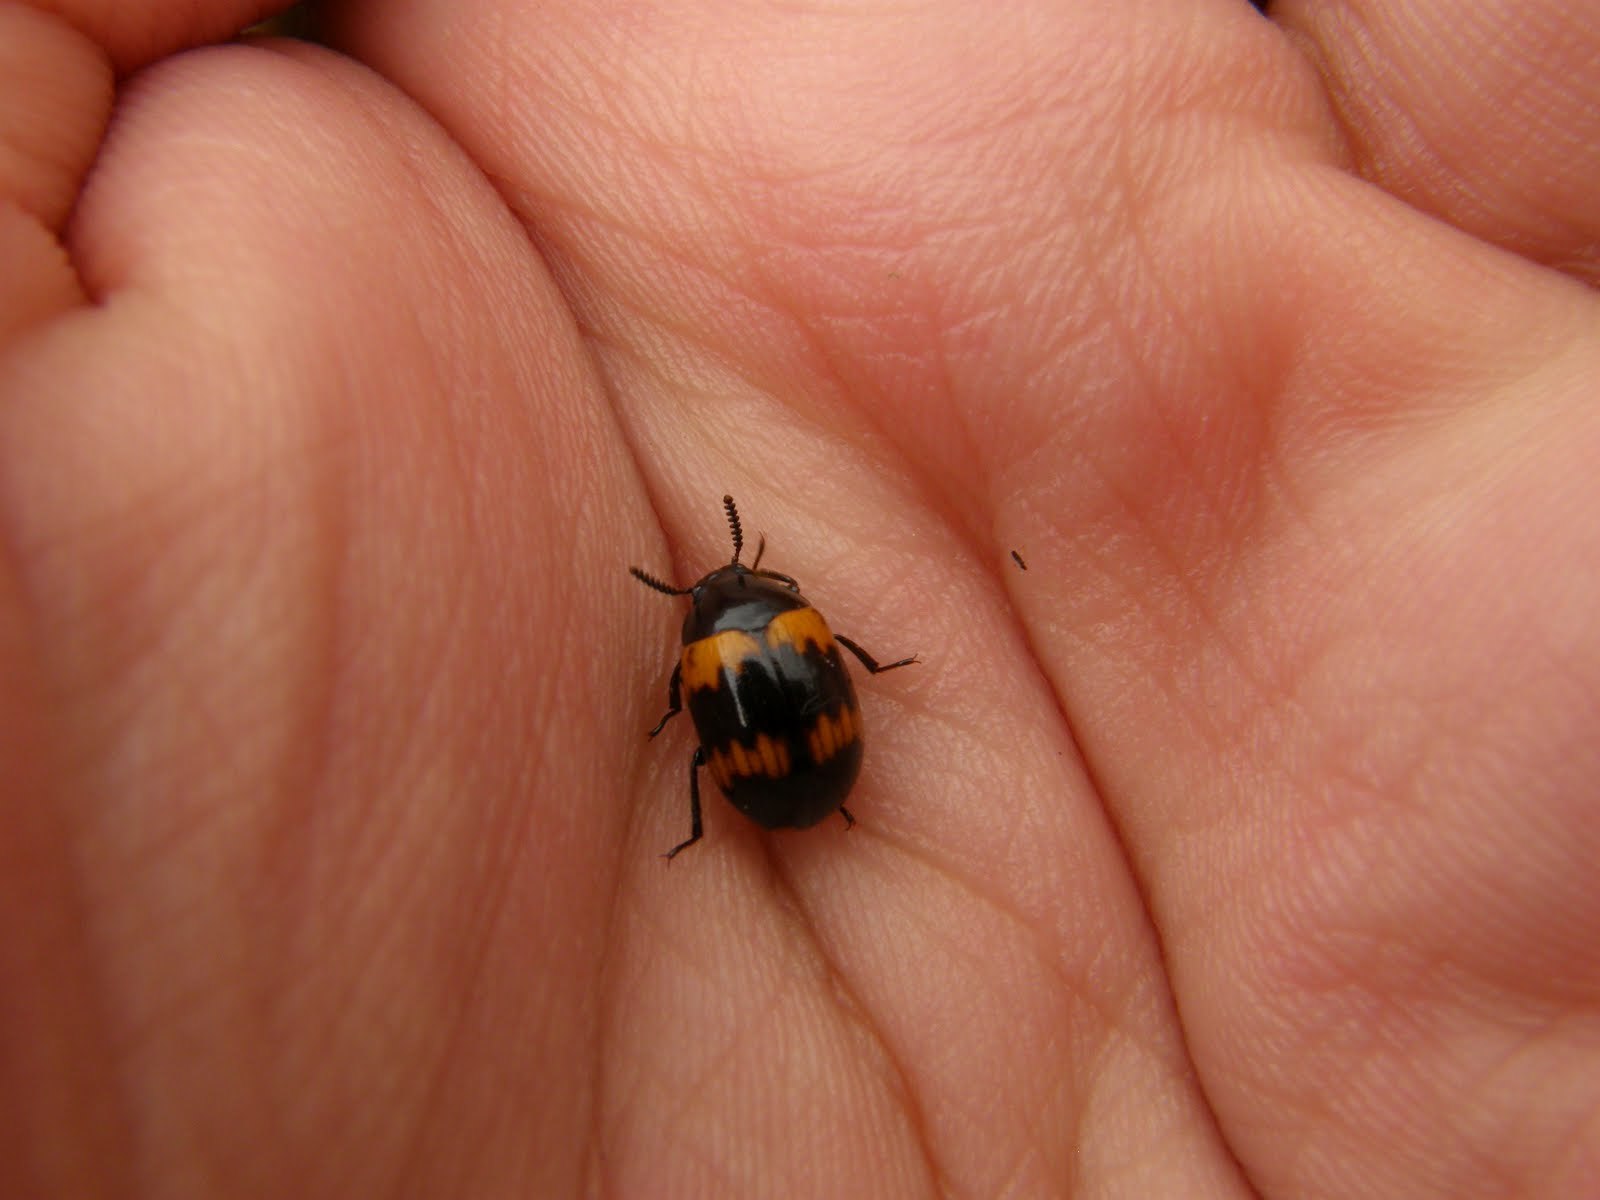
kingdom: Animalia
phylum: Arthropoda
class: Insecta
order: Coleoptera
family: Tenebrionidae
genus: Diaperis
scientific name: Diaperis boleti
